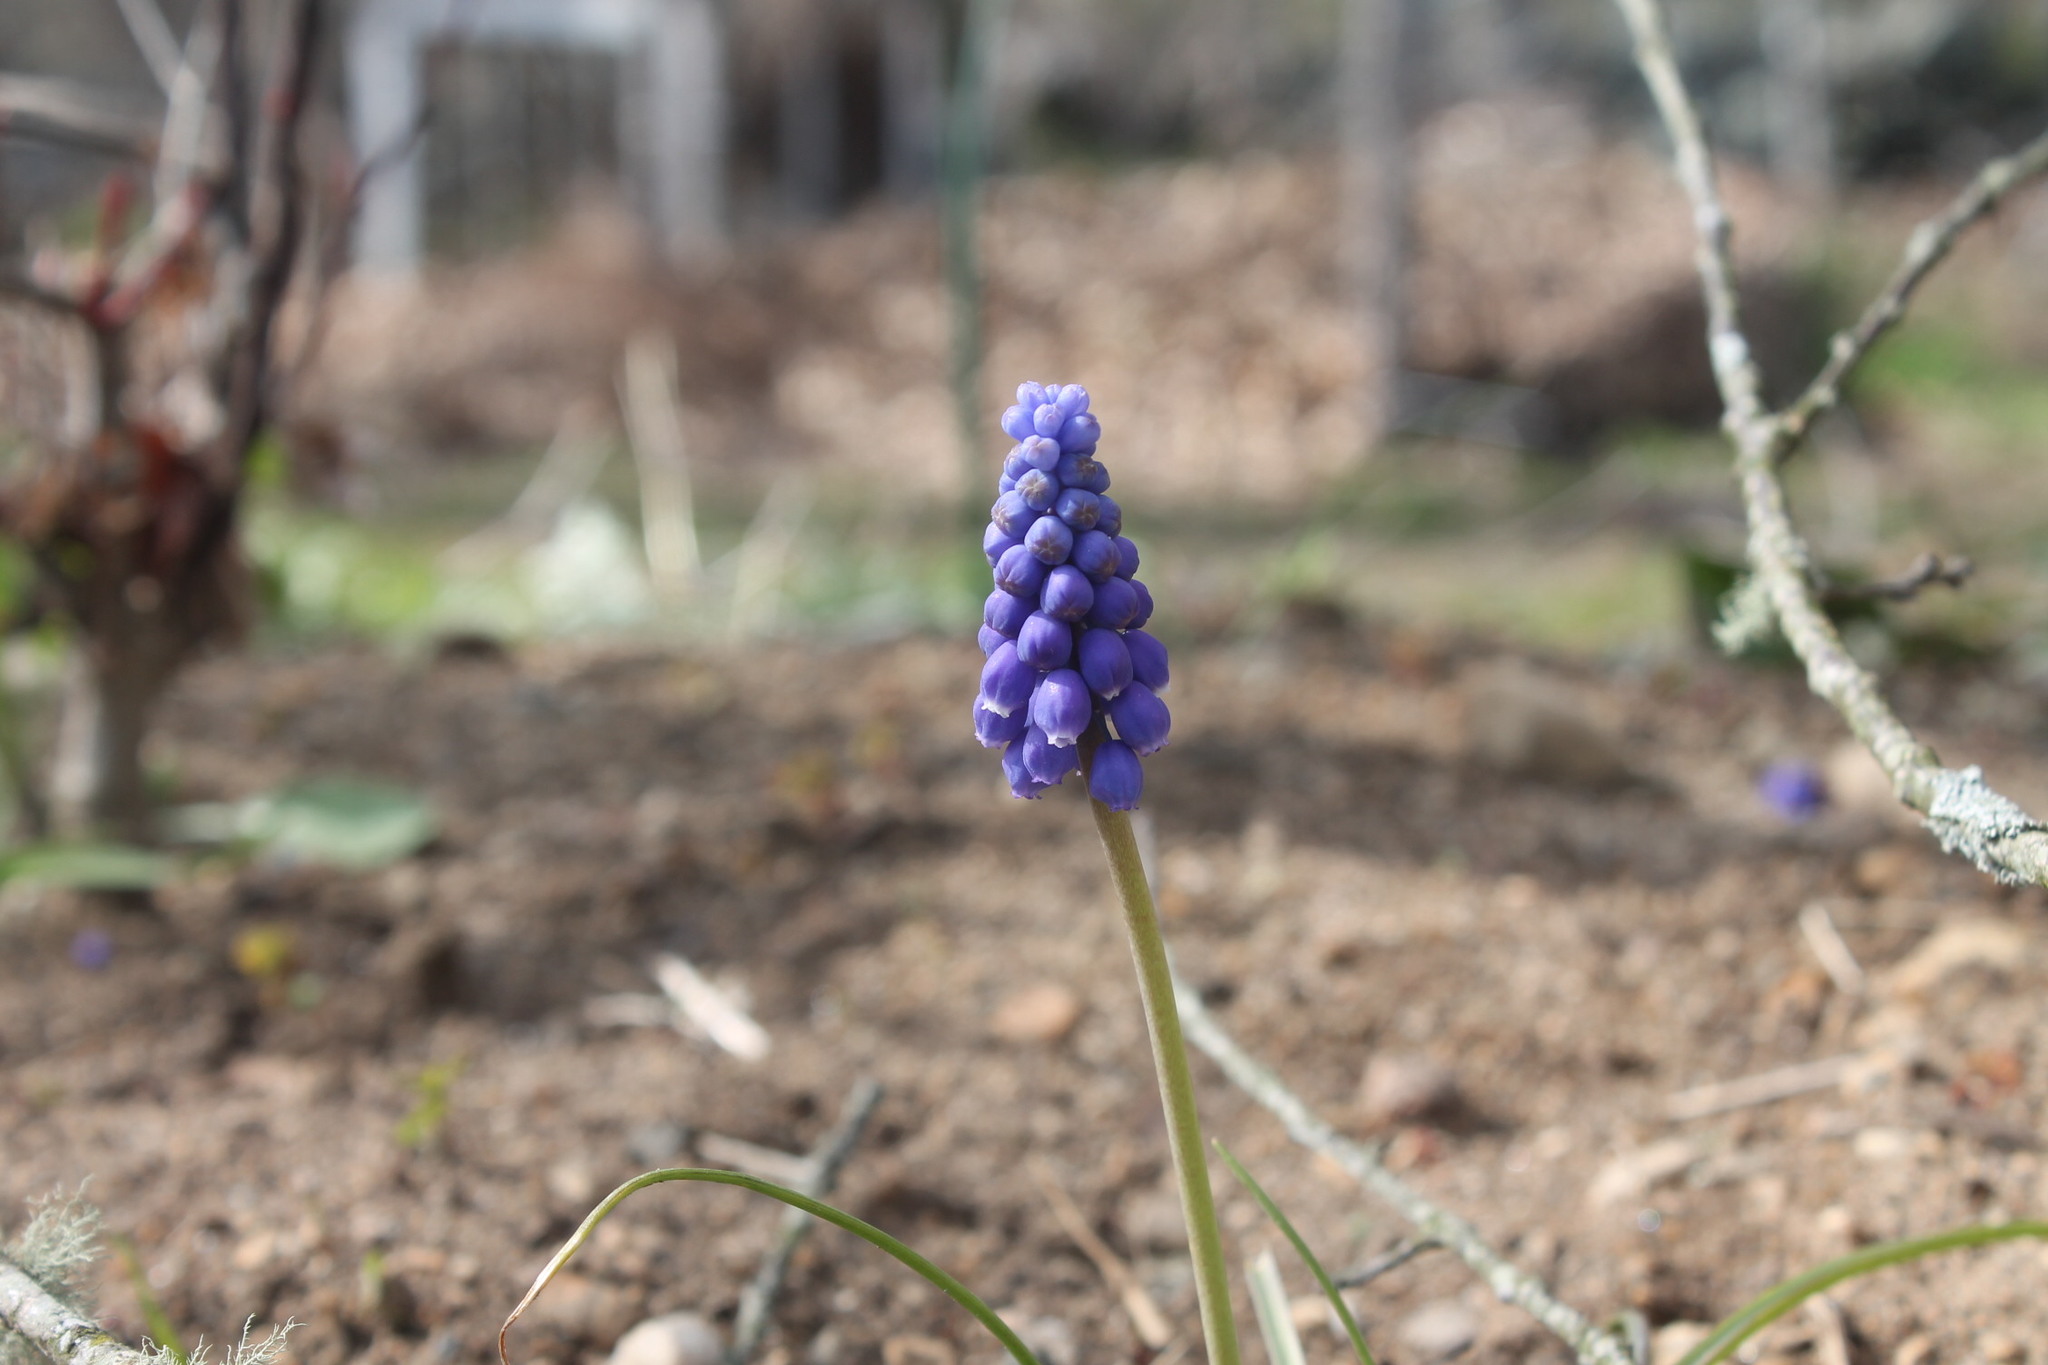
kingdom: Plantae
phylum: Tracheophyta
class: Liliopsida
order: Asparagales
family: Asparagaceae
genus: Muscari
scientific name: Muscari botryoides
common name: Compact grape-hyacinth
